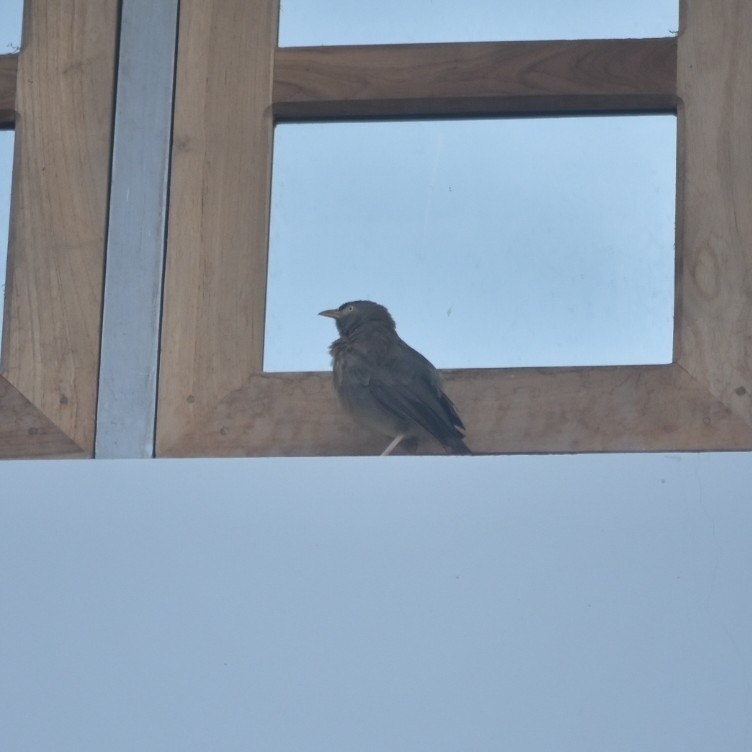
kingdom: Animalia
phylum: Chordata
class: Aves
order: Passeriformes
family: Leiothrichidae
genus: Turdoides
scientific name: Turdoides striata
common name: Jungle babbler
